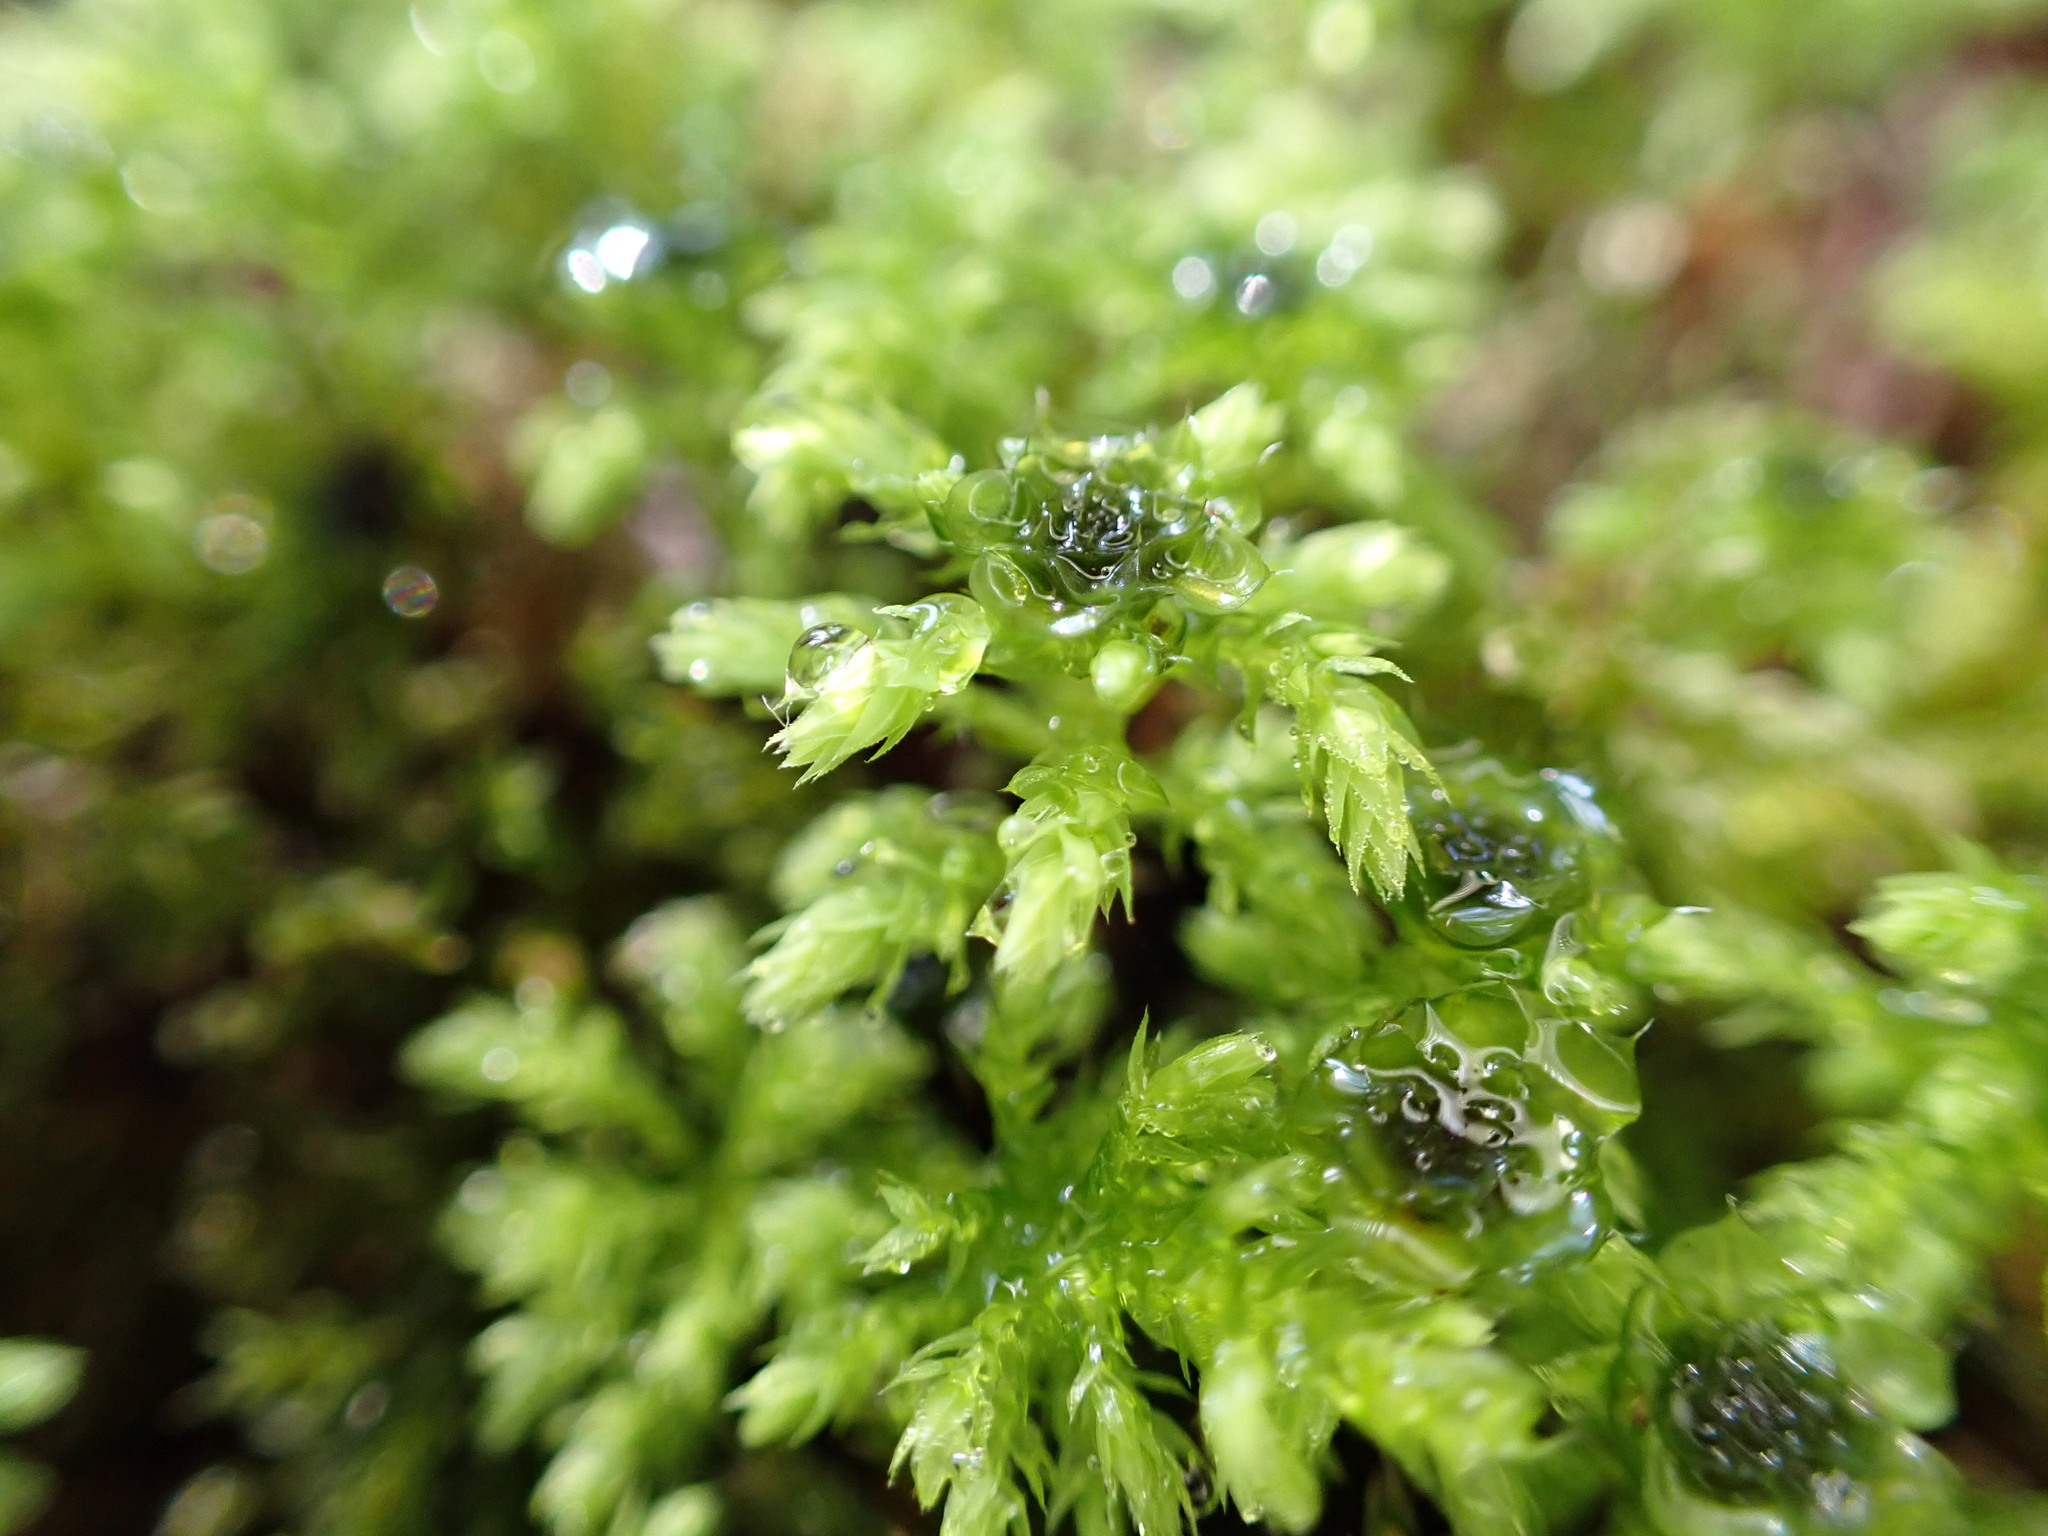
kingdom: Plantae
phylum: Bryophyta
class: Bryopsida
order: Bryales
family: Mniaceae
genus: Leucolepis
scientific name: Leucolepis acanthoneura
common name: Leucolepis umbrella moss
